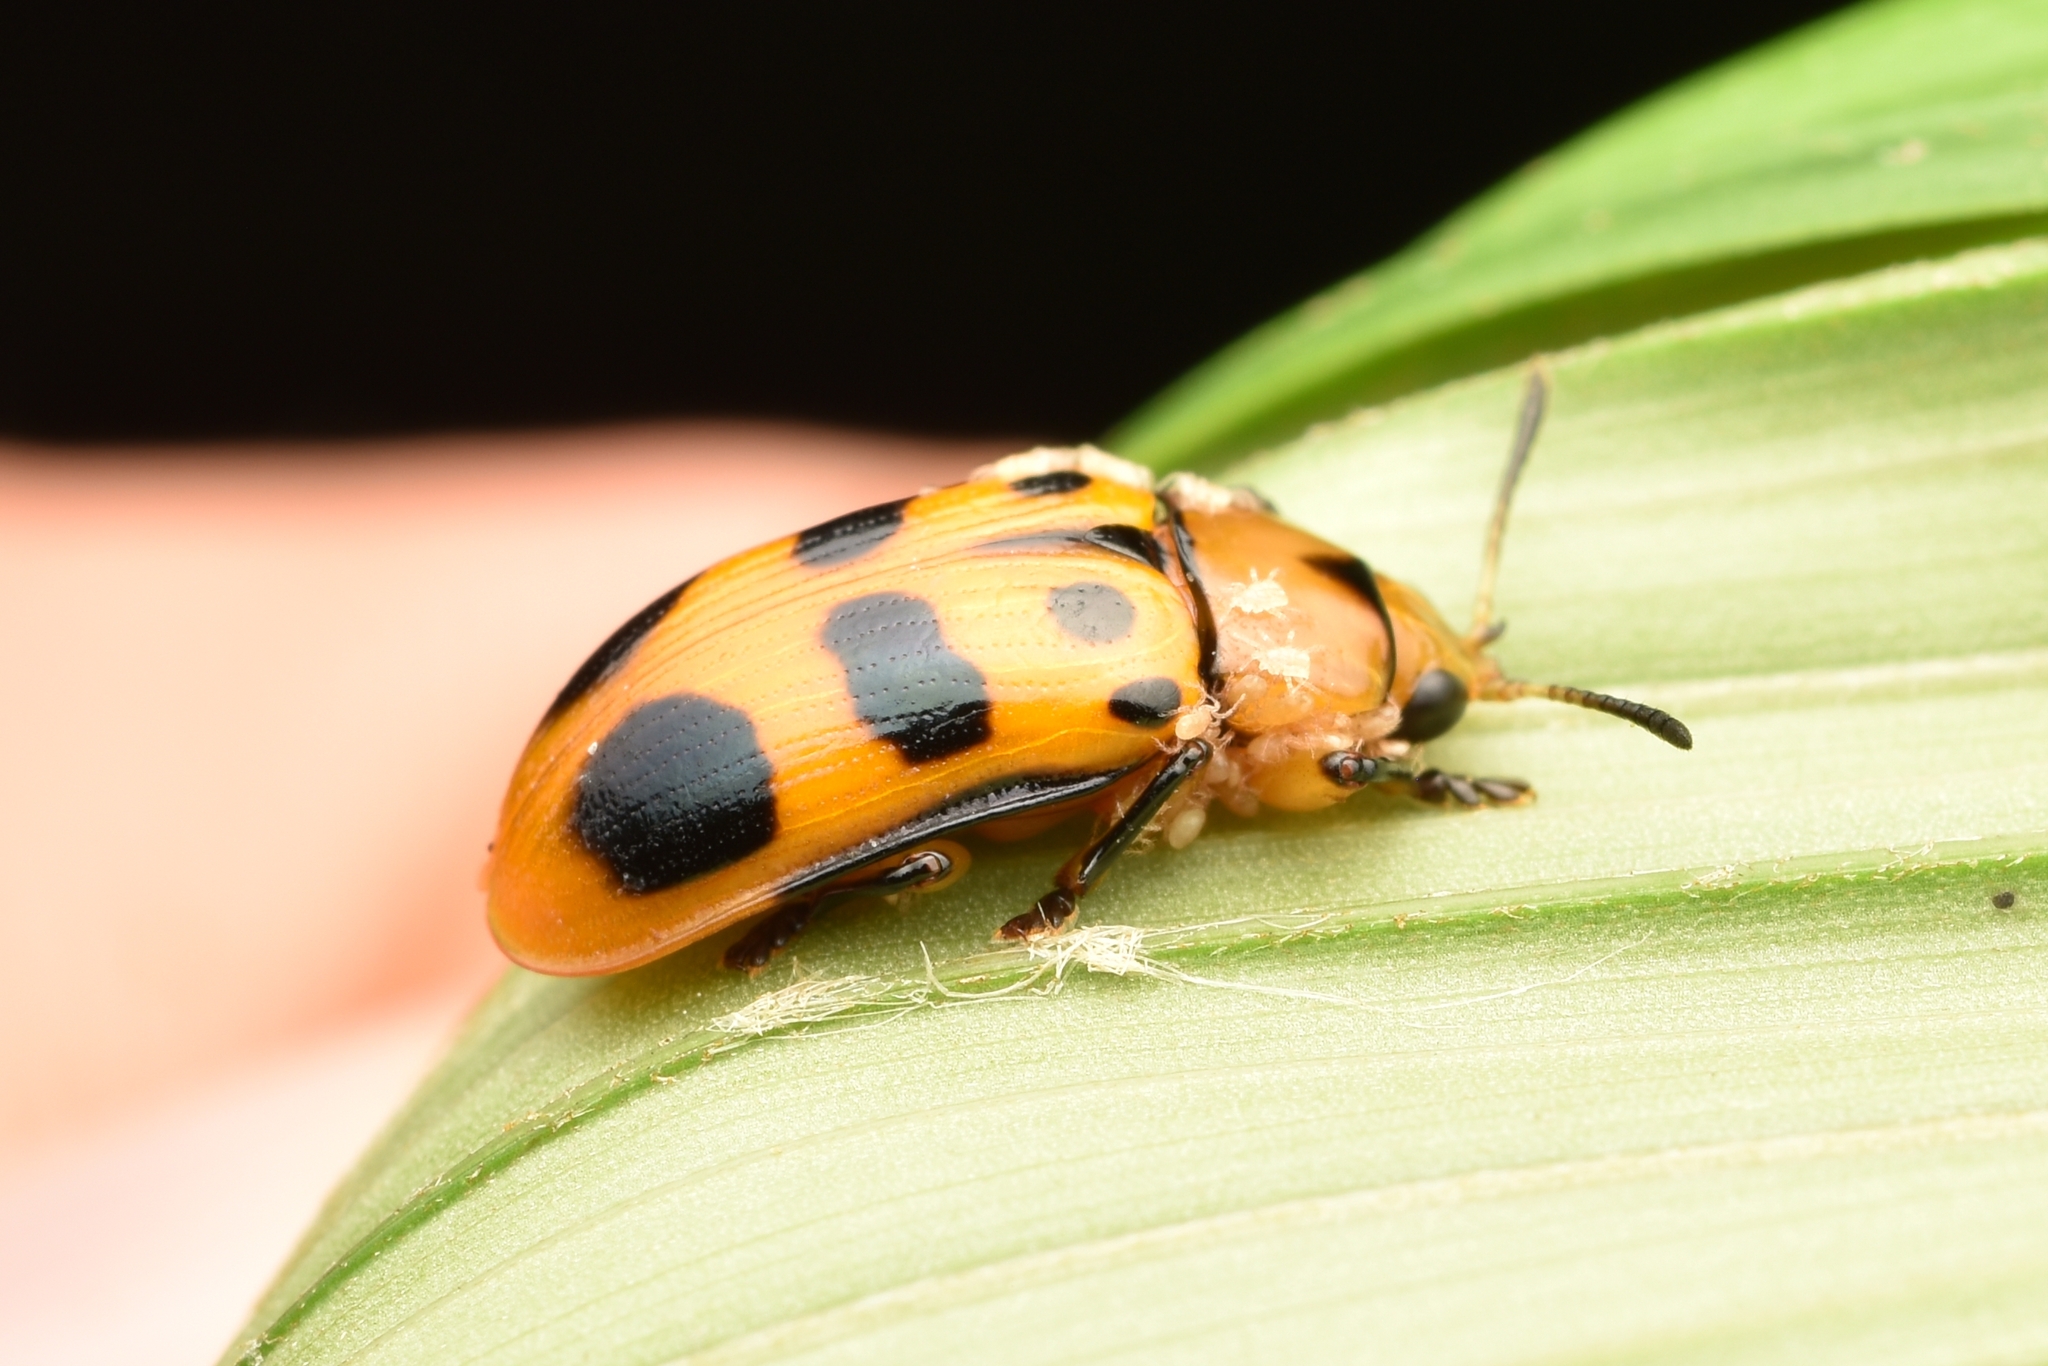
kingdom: Animalia
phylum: Arthropoda
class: Insecta
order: Coleoptera
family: Chrysomelidae
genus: Chelobasis
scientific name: Chelobasis bicolor
